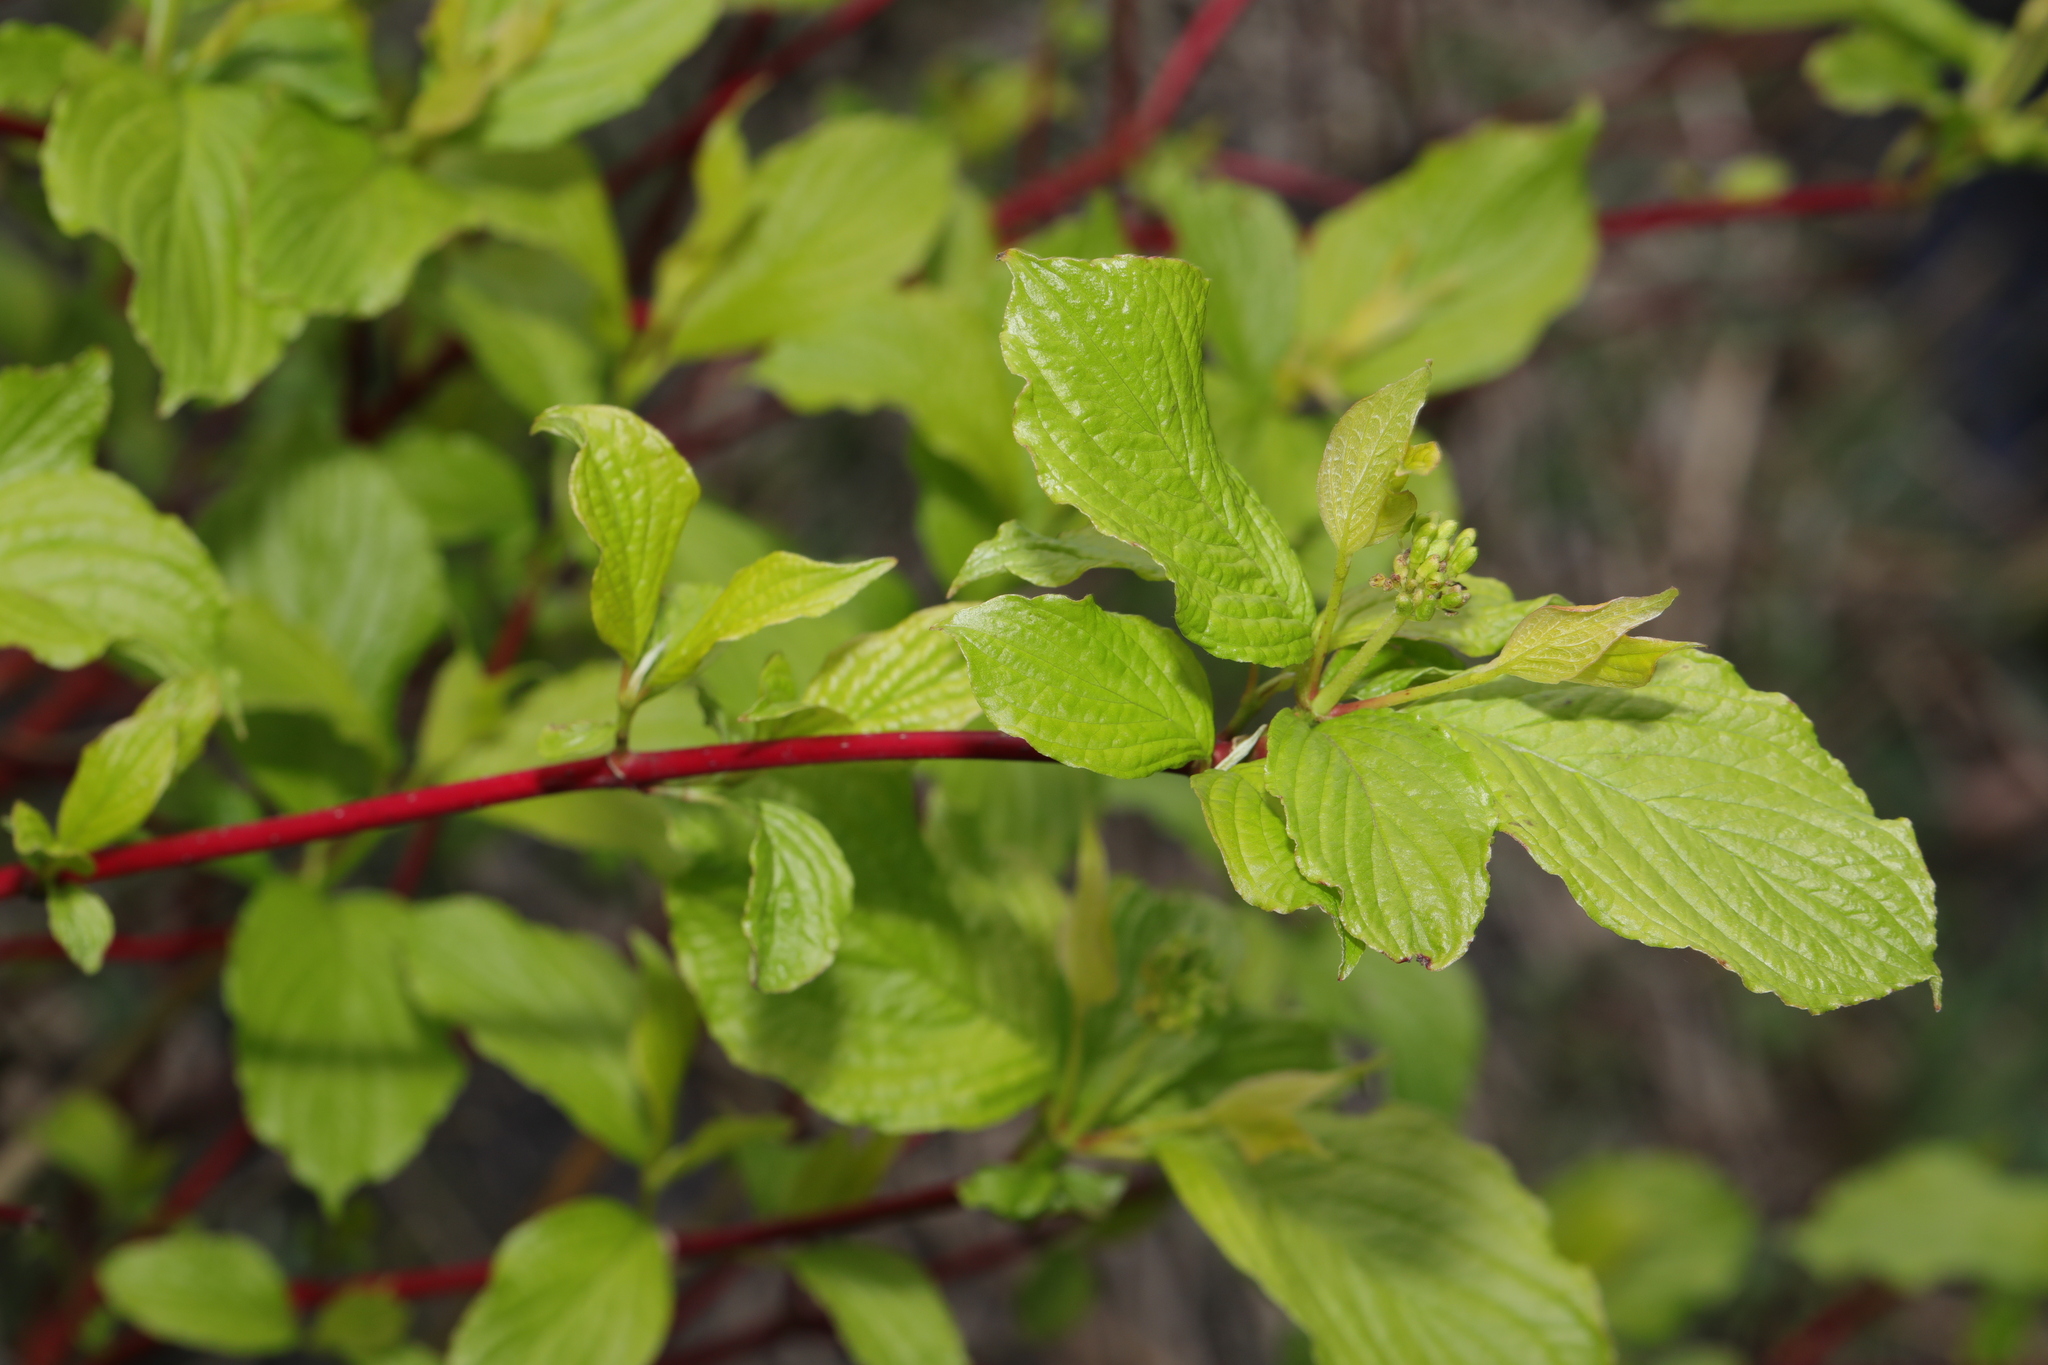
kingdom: Plantae
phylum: Tracheophyta
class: Magnoliopsida
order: Cornales
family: Cornaceae
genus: Cornus
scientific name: Cornus alba
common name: White dogwood
